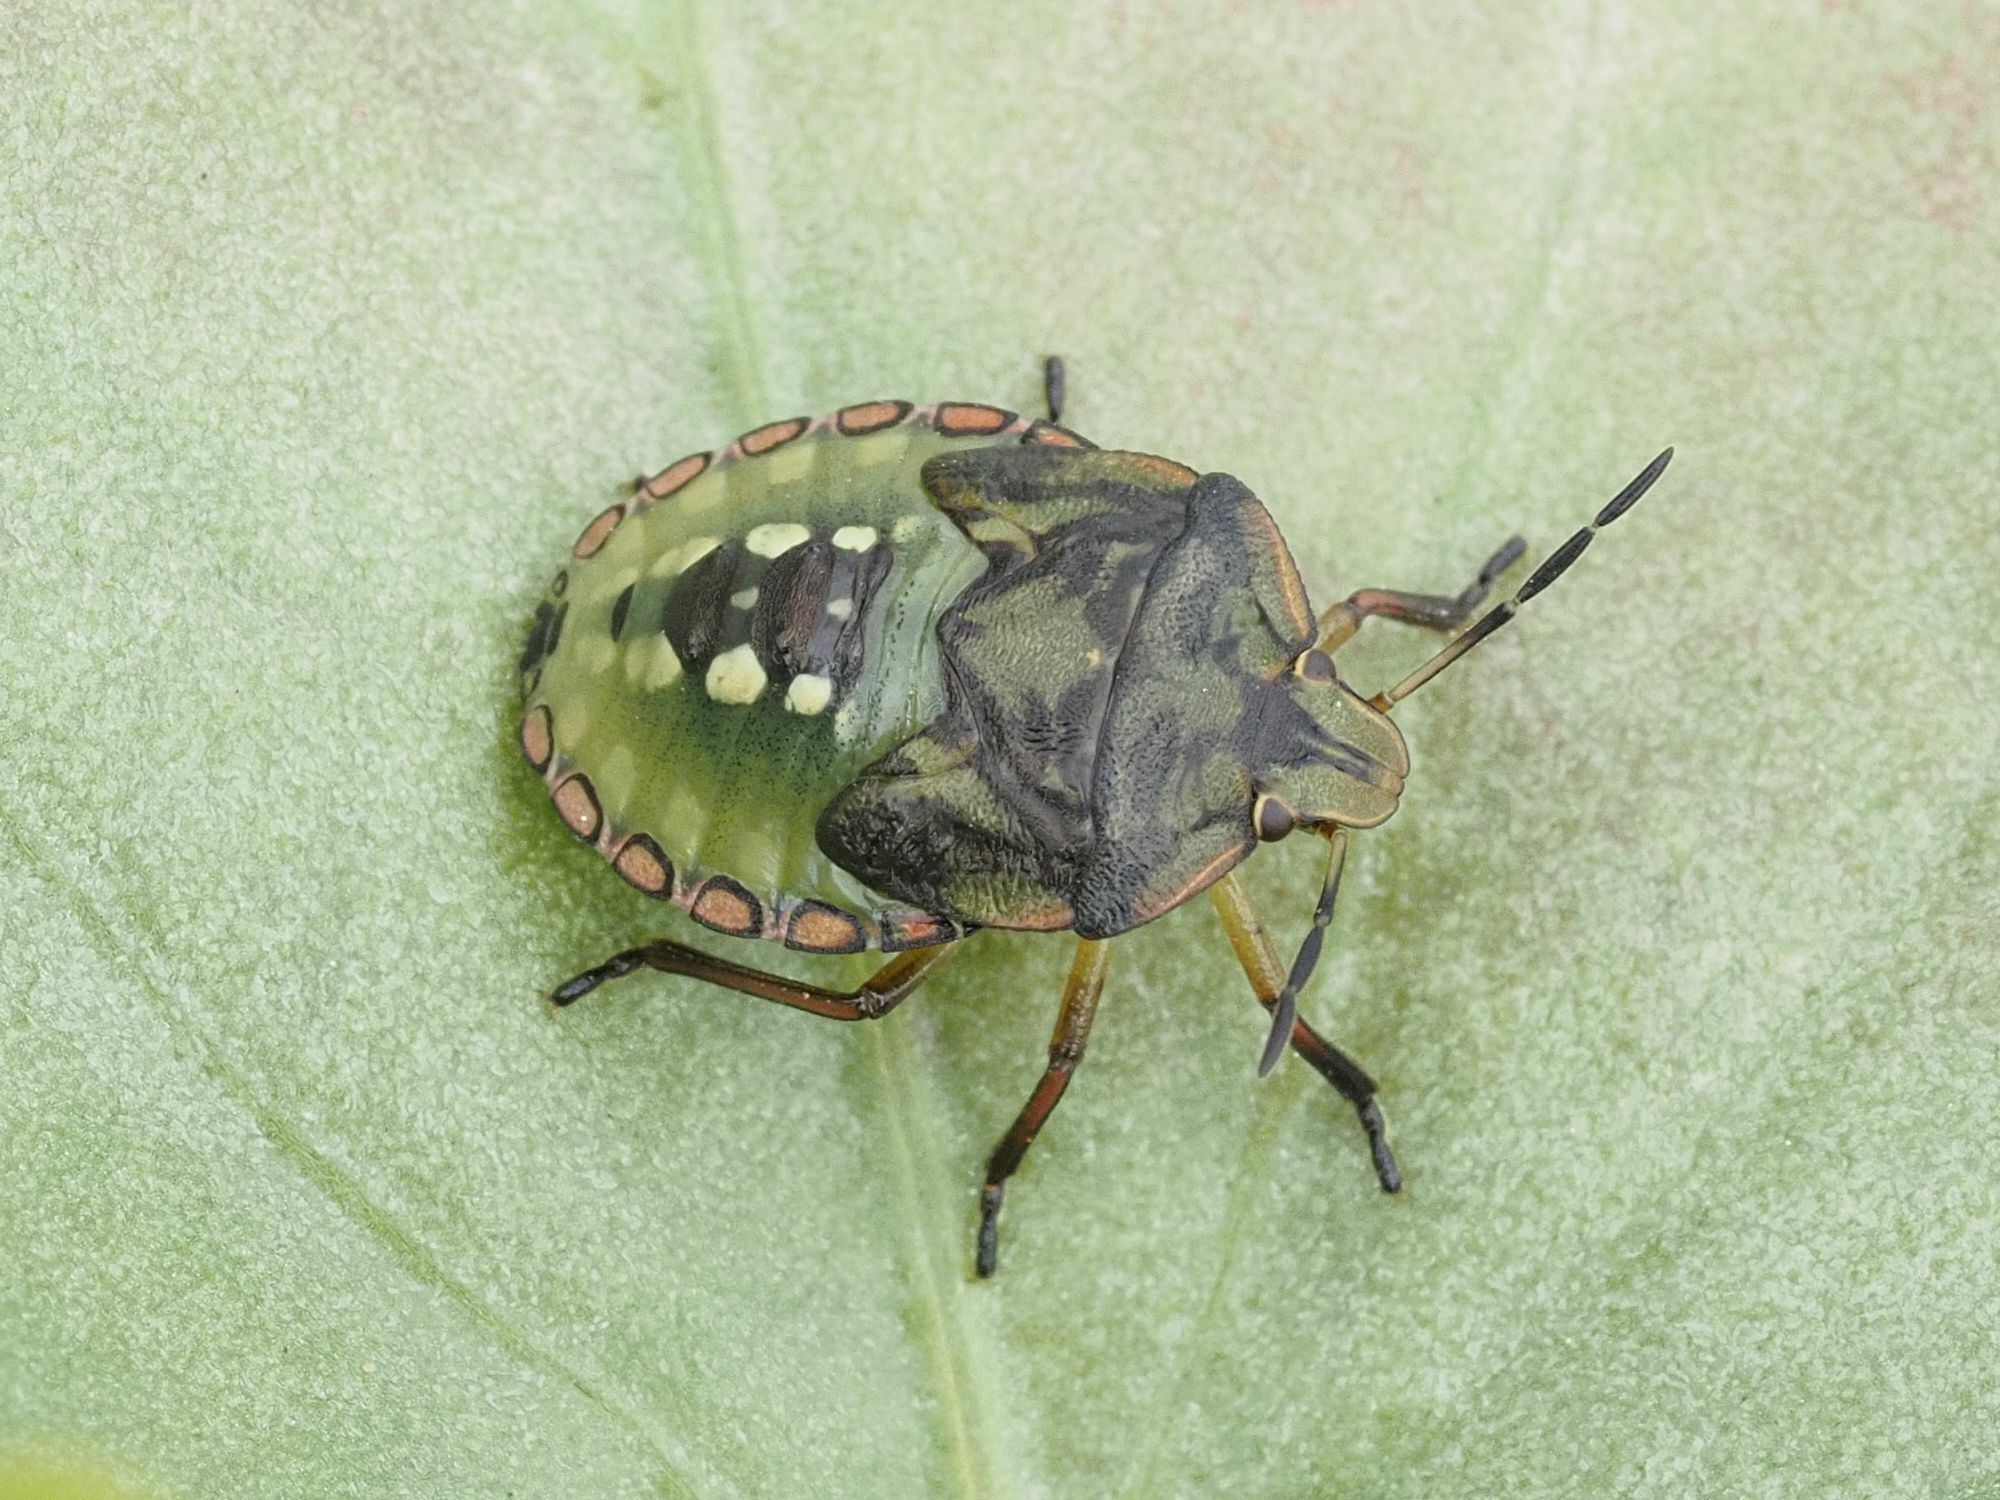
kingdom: Animalia
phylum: Arthropoda
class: Insecta
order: Hemiptera
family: Pentatomidae
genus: Nezara
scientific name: Nezara viridula
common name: Southern green stink bug
